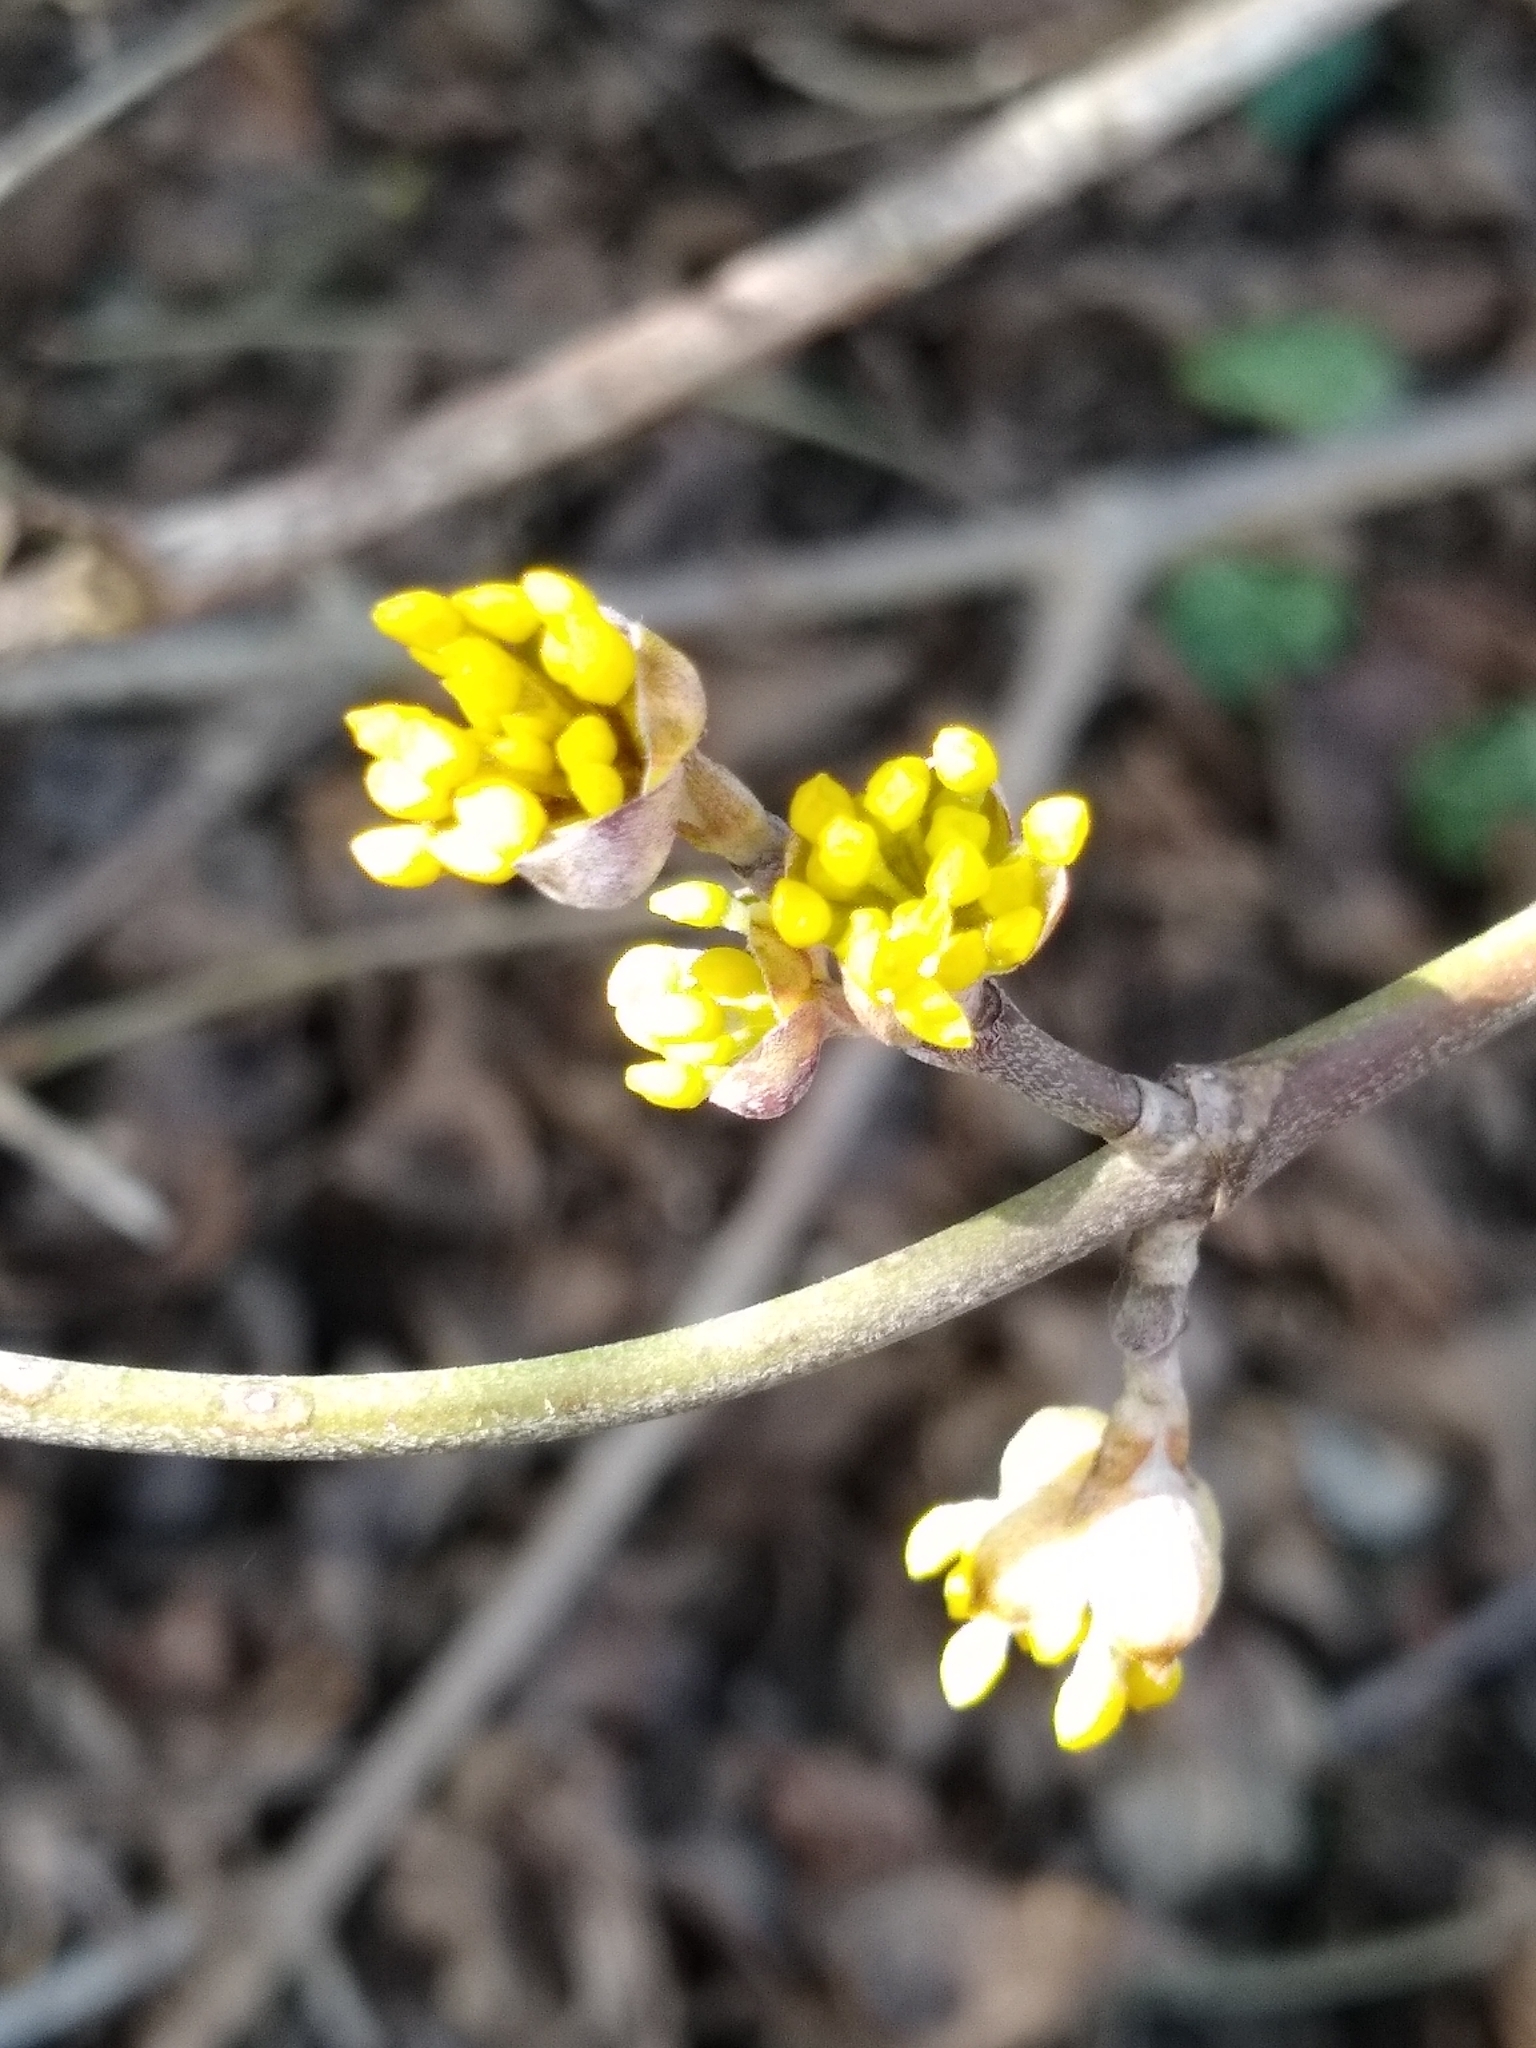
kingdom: Plantae
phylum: Tracheophyta
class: Magnoliopsida
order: Cornales
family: Cornaceae
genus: Cornus
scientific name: Cornus mas
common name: Cornelian-cherry
